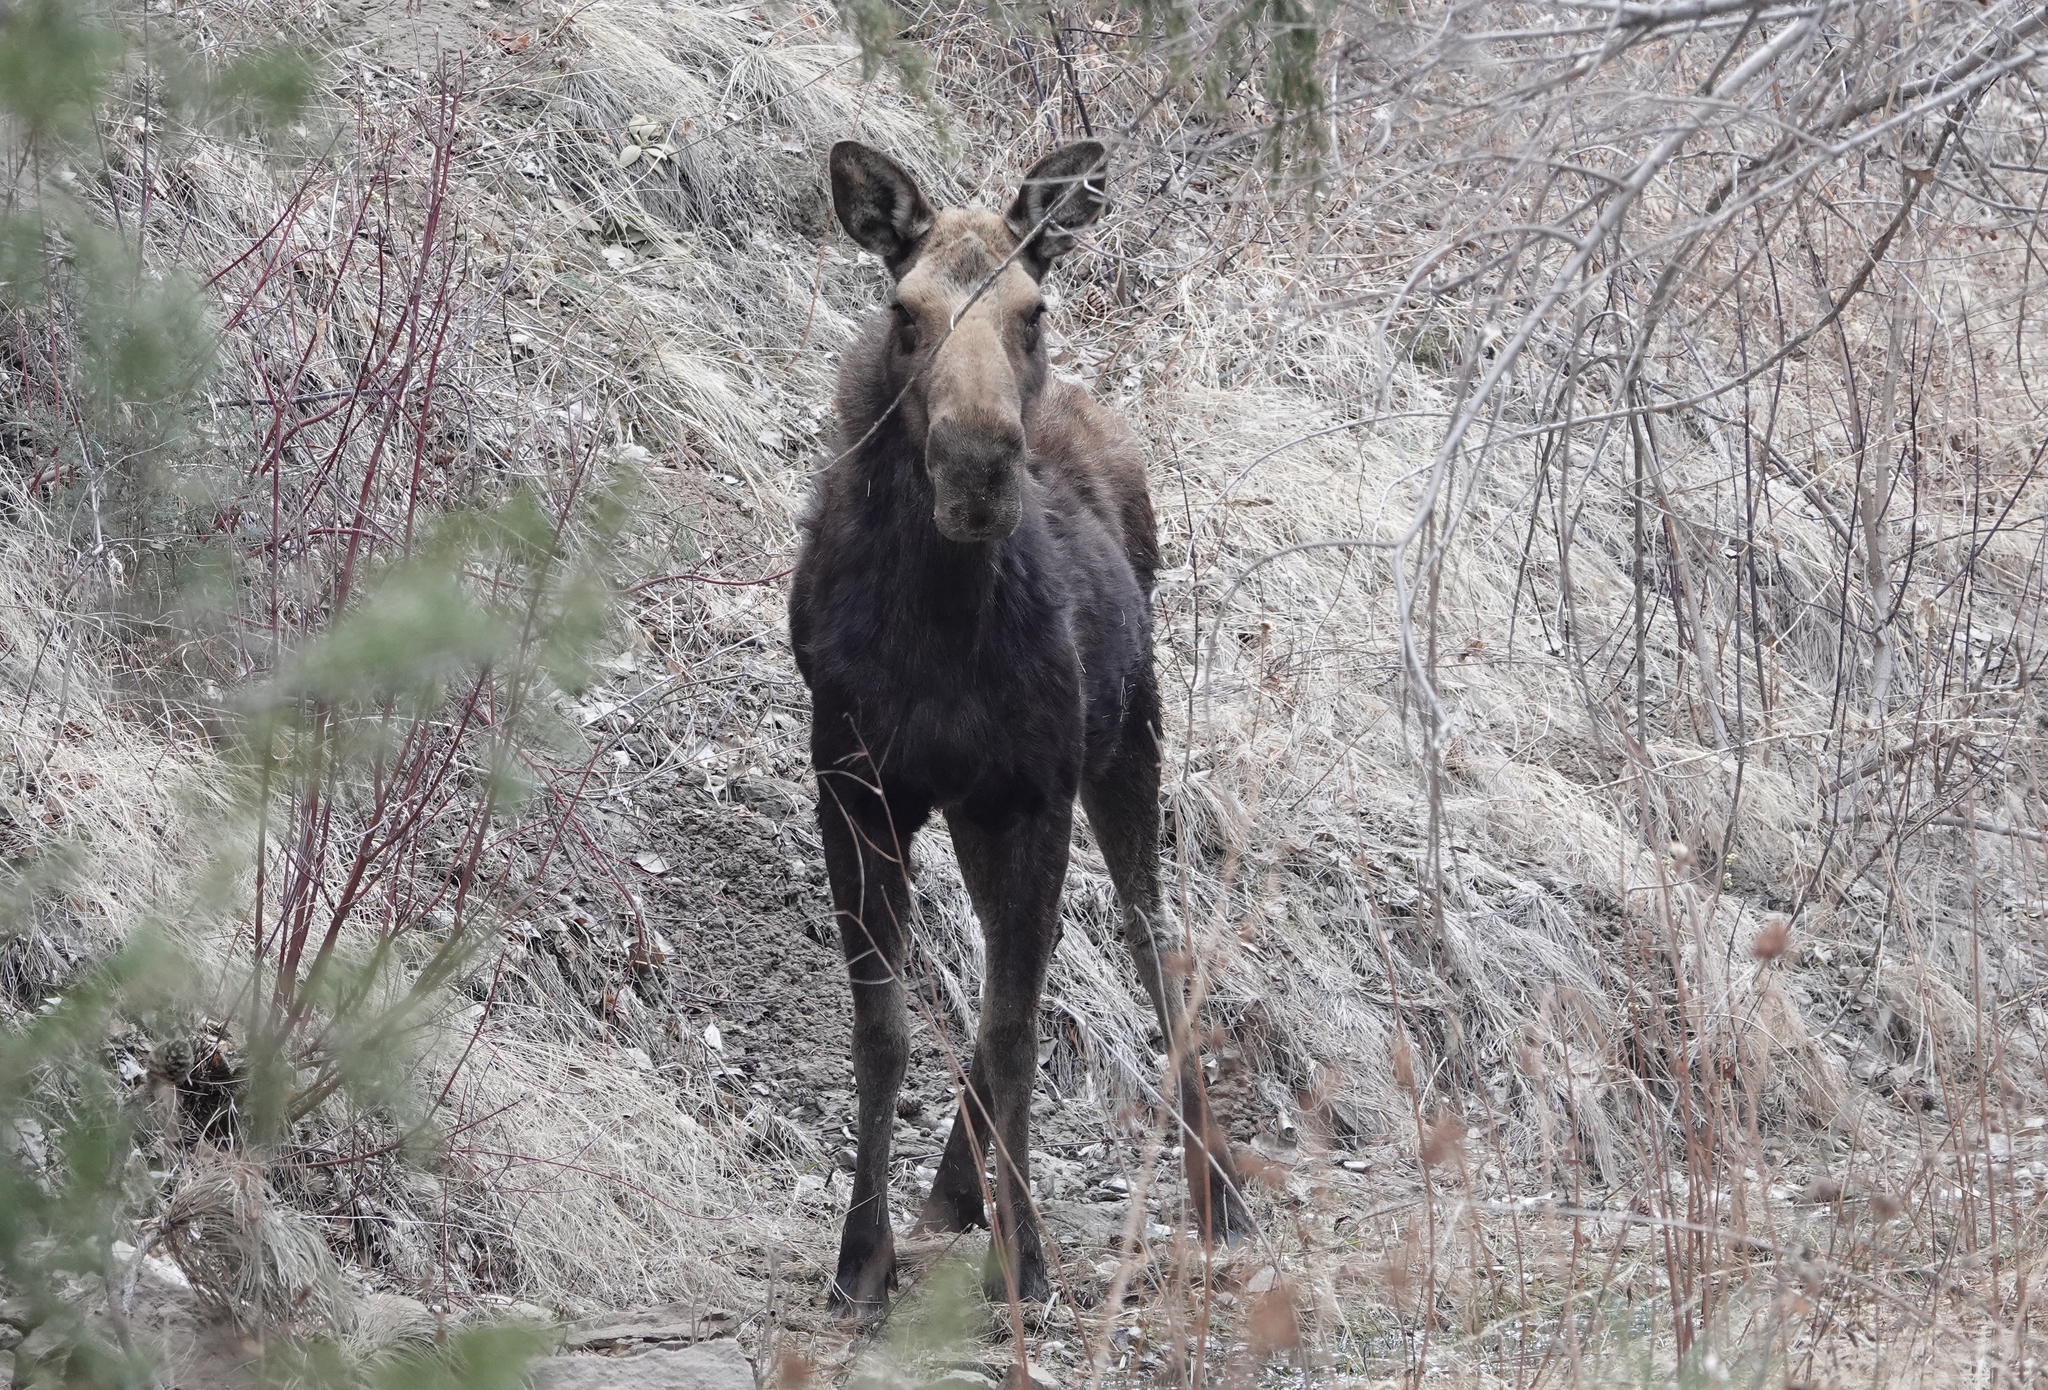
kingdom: Animalia
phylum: Chordata
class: Mammalia
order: Artiodactyla
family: Cervidae
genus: Alces
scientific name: Alces alces
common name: Moose
